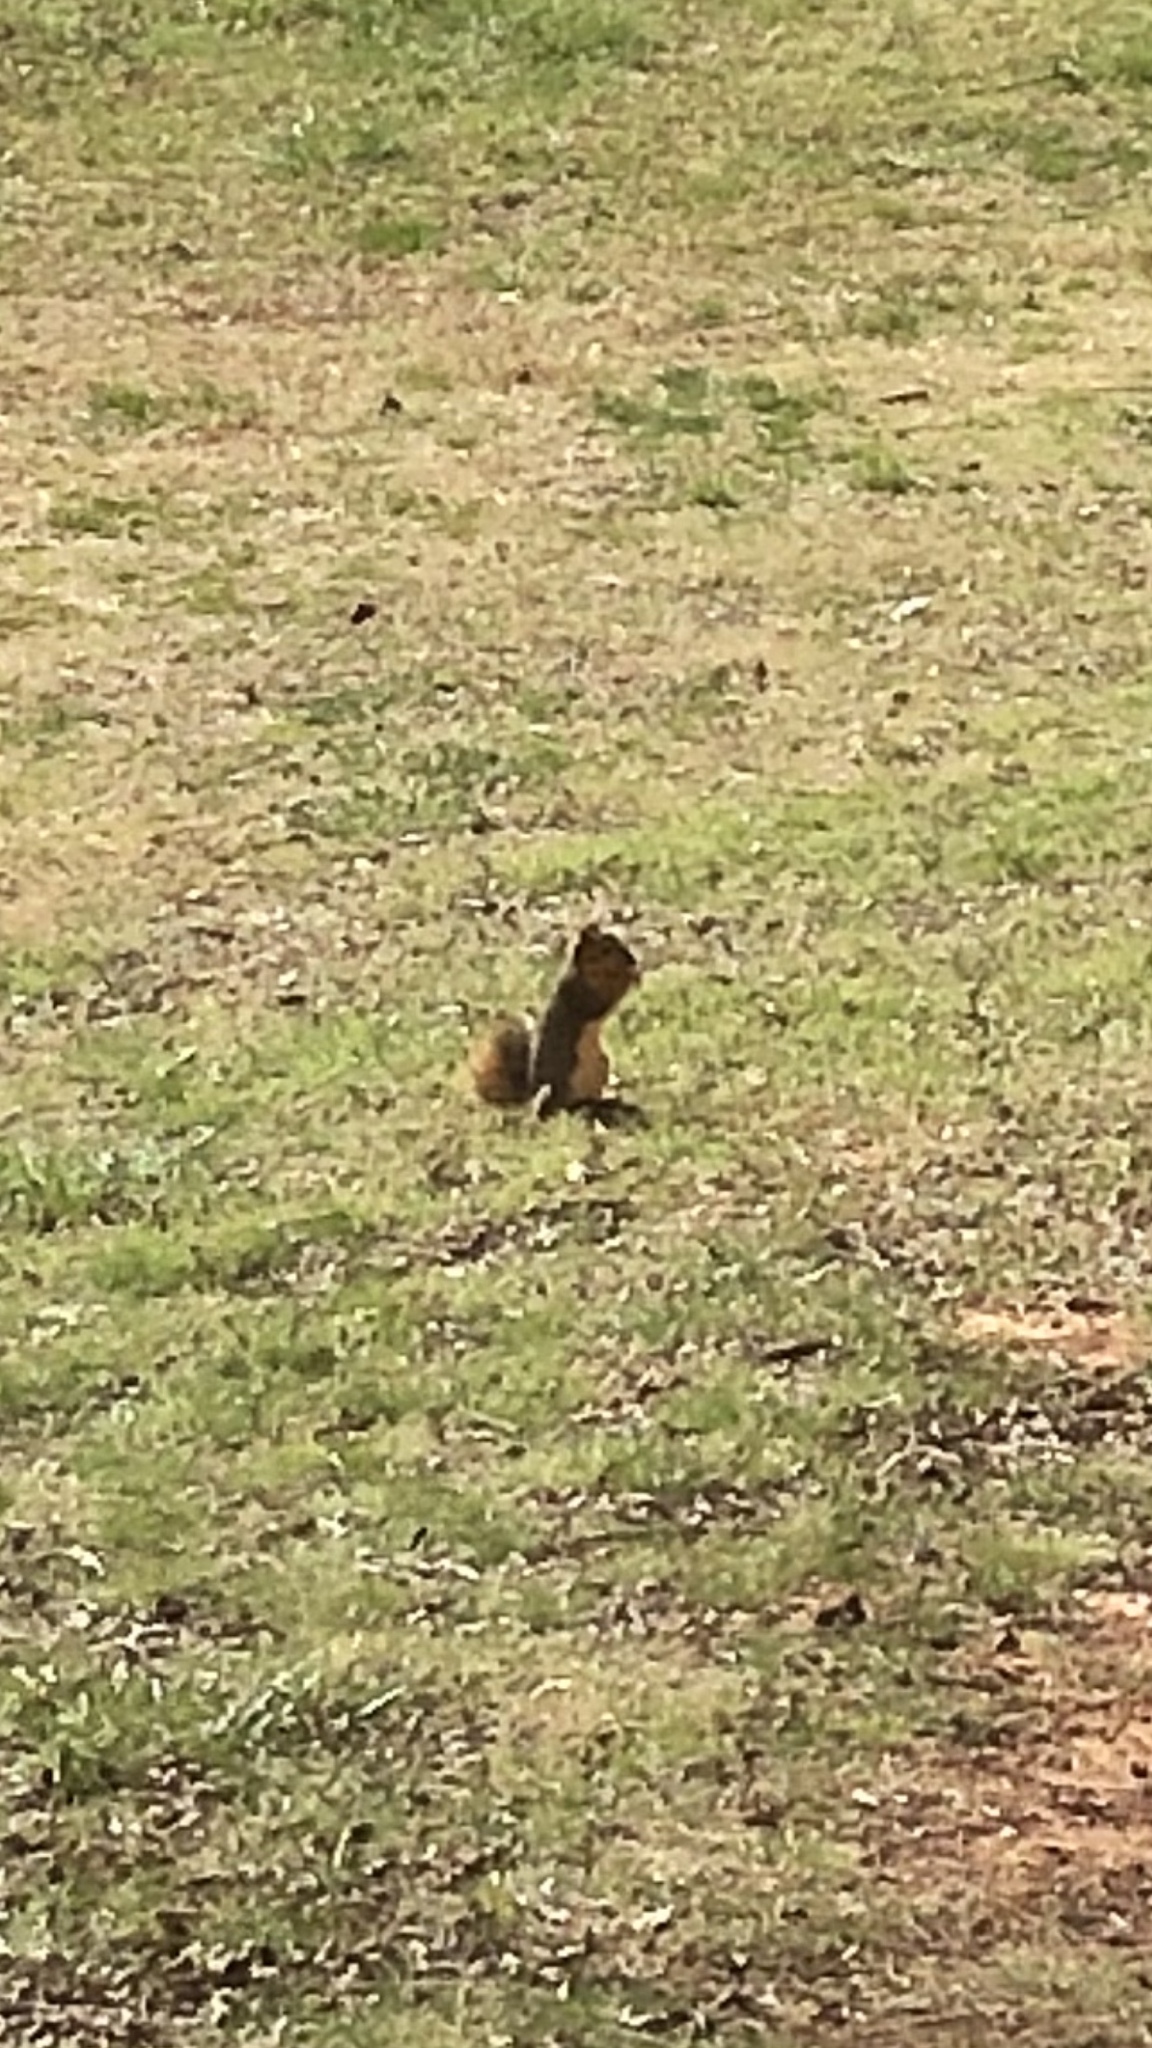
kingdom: Animalia
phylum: Chordata
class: Mammalia
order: Rodentia
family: Sciuridae
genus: Sciurus
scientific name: Sciurus niger
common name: Fox squirrel
